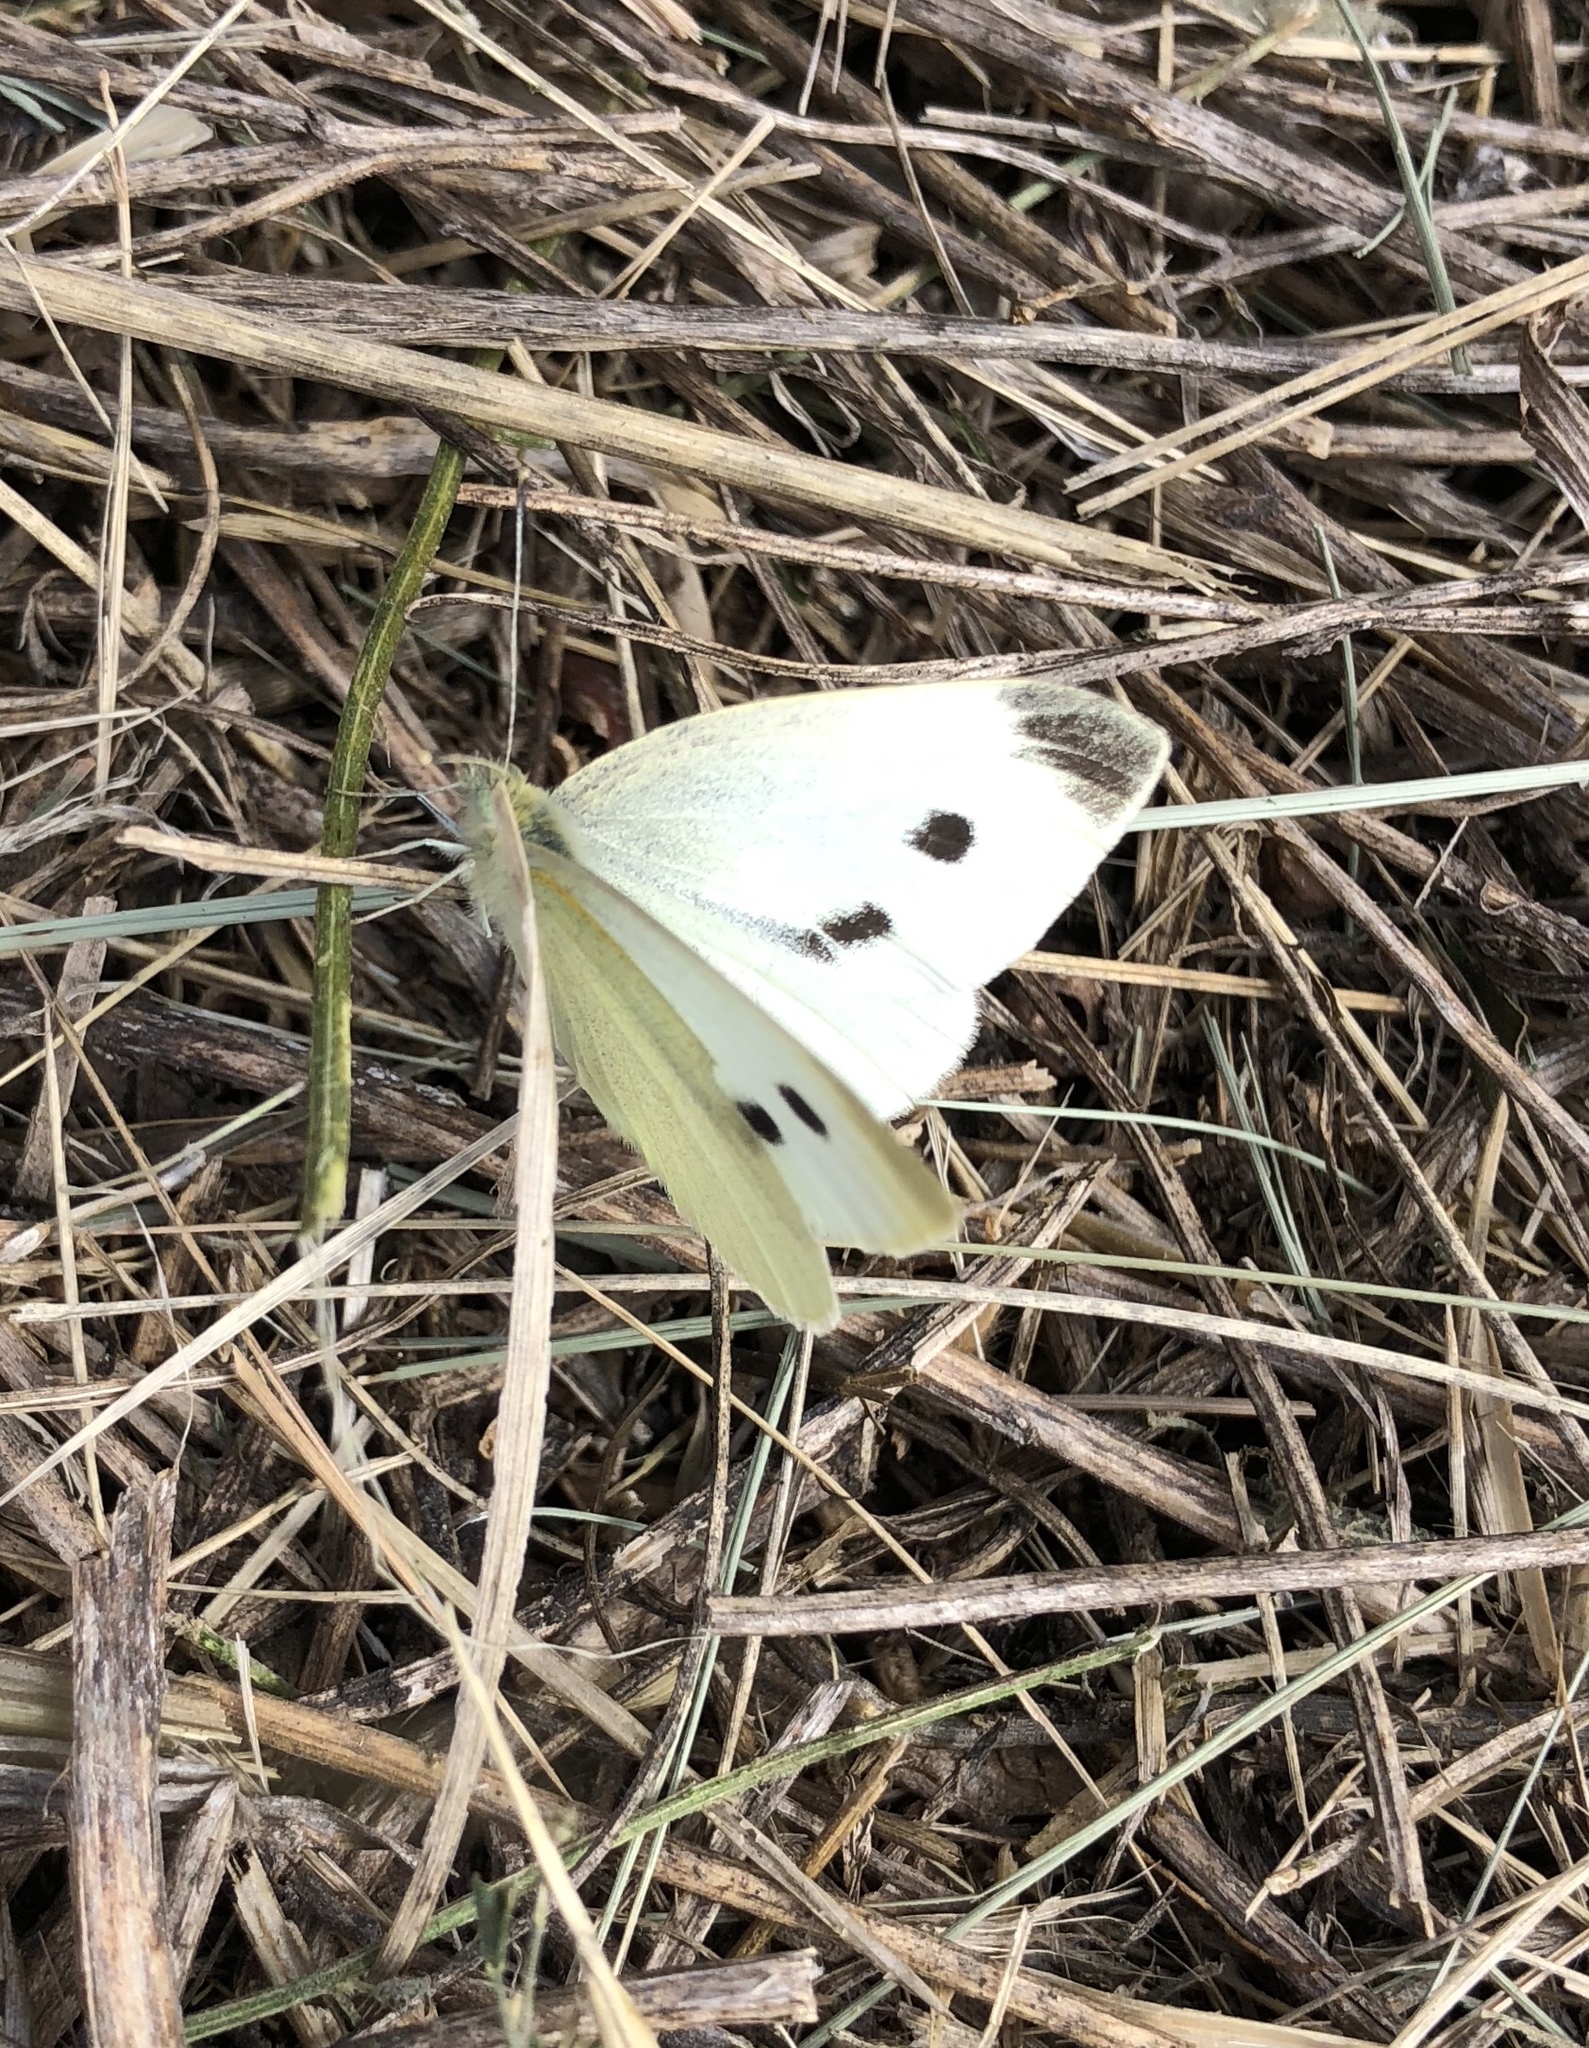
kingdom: Animalia
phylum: Arthropoda
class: Insecta
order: Lepidoptera
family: Pieridae
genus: Pieris
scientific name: Pieris rapae
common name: Small white
